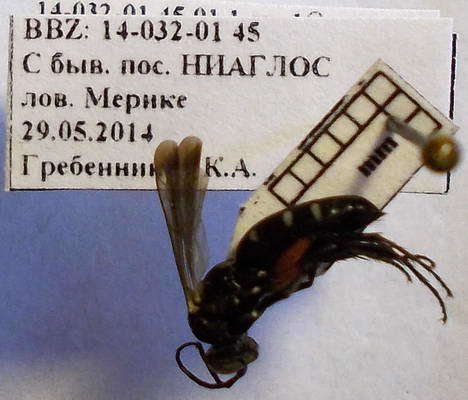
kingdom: Animalia
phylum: Arthropoda
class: Insecta
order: Hymenoptera
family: Pompilidae
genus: Aporinellus
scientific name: Aporinellus moestus
